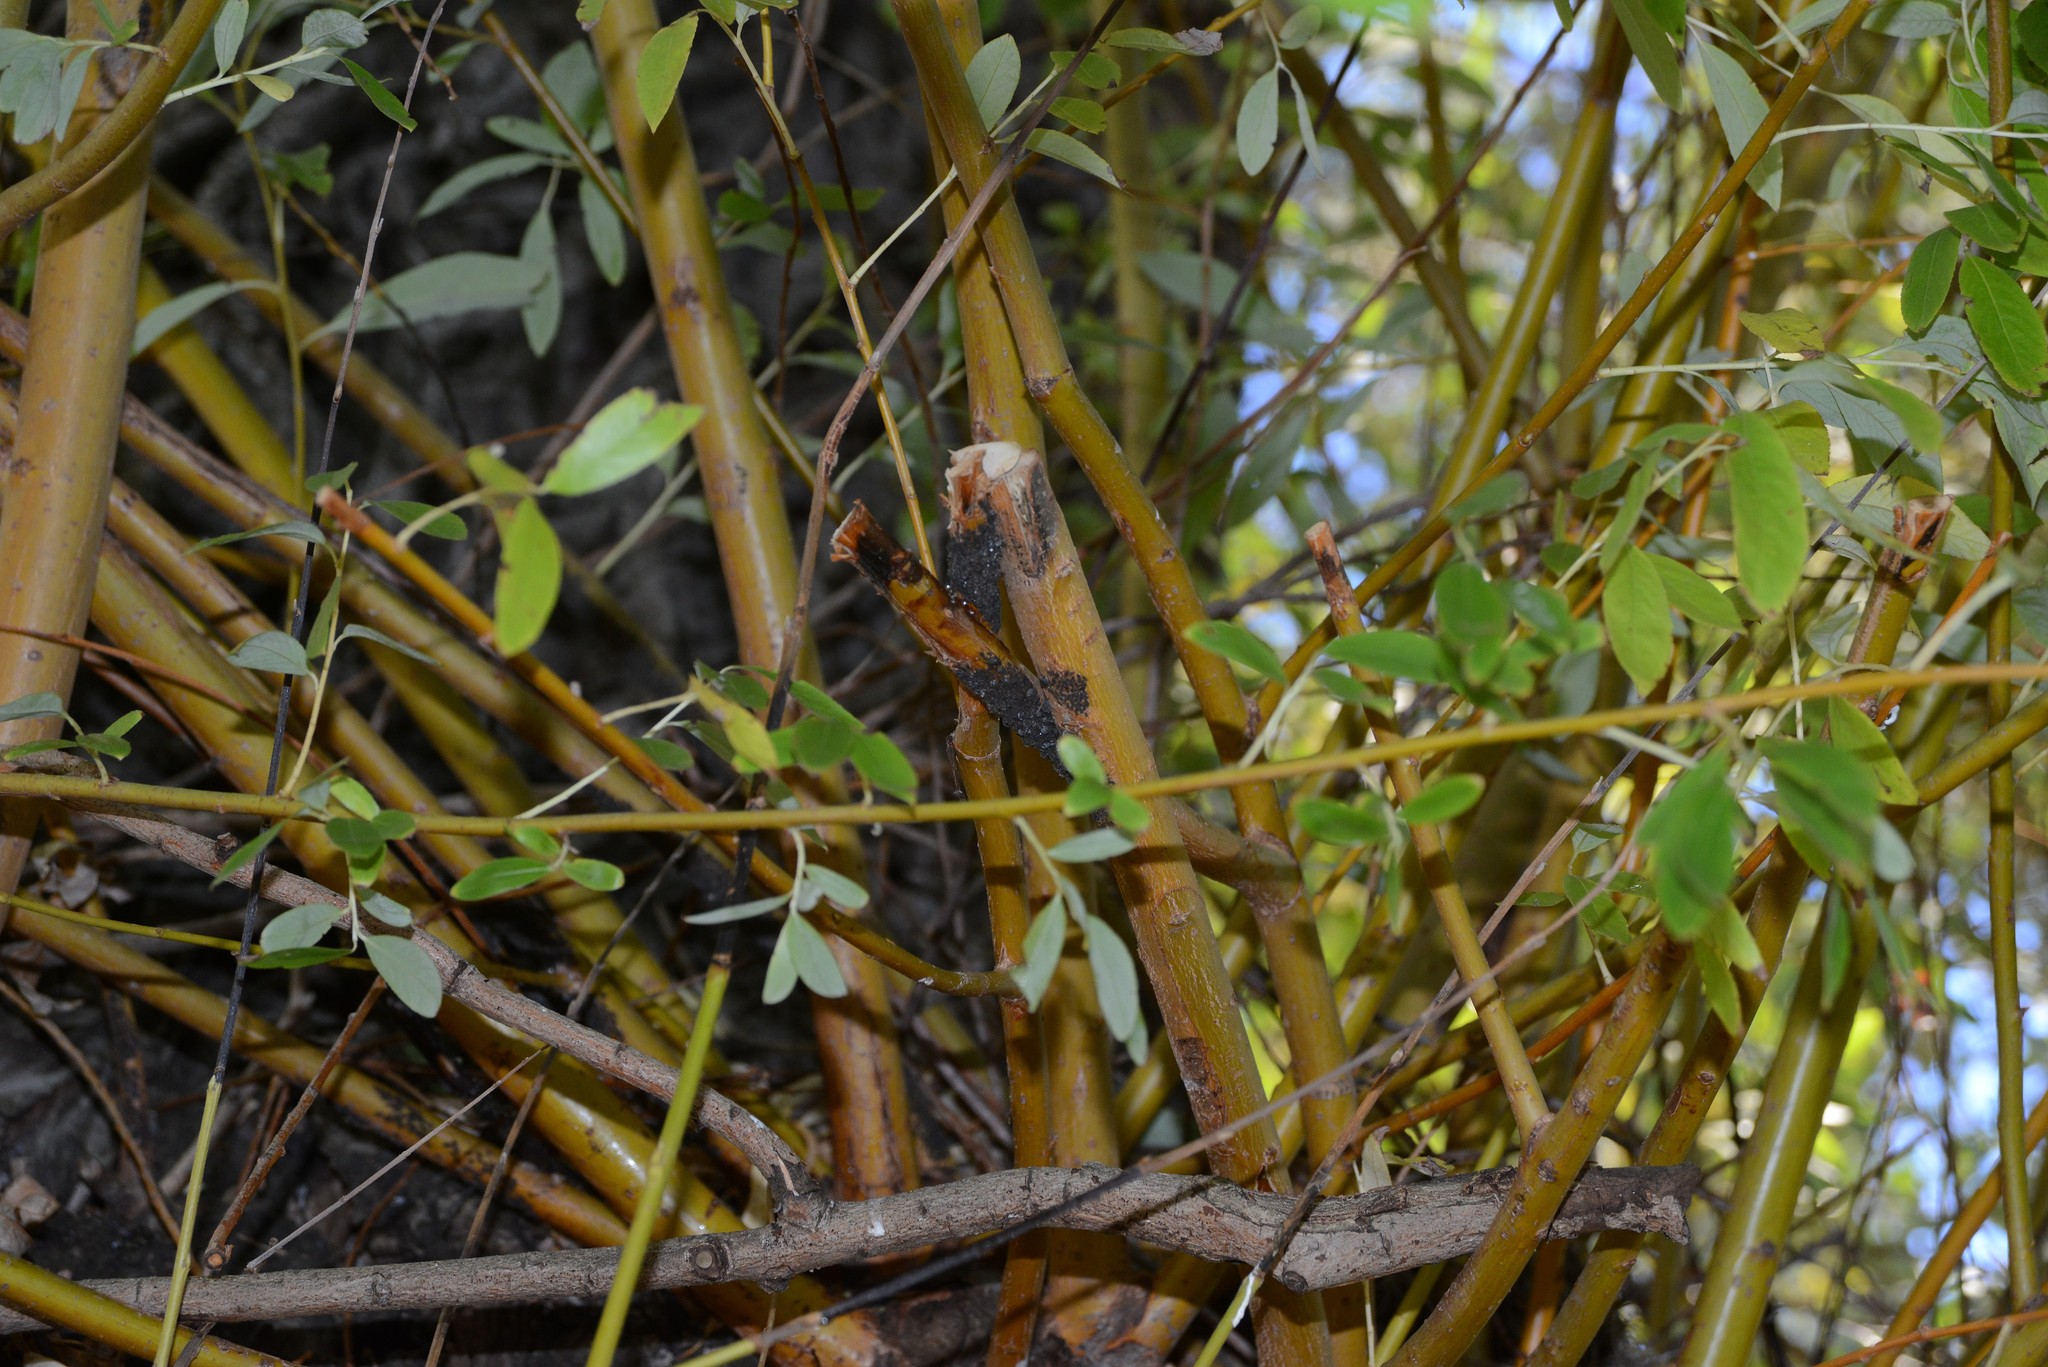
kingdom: Animalia
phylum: Arthropoda
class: Insecta
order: Hemiptera
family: Aphididae
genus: Tuberolachnus
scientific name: Tuberolachnus salignus
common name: Giant willow aphid
